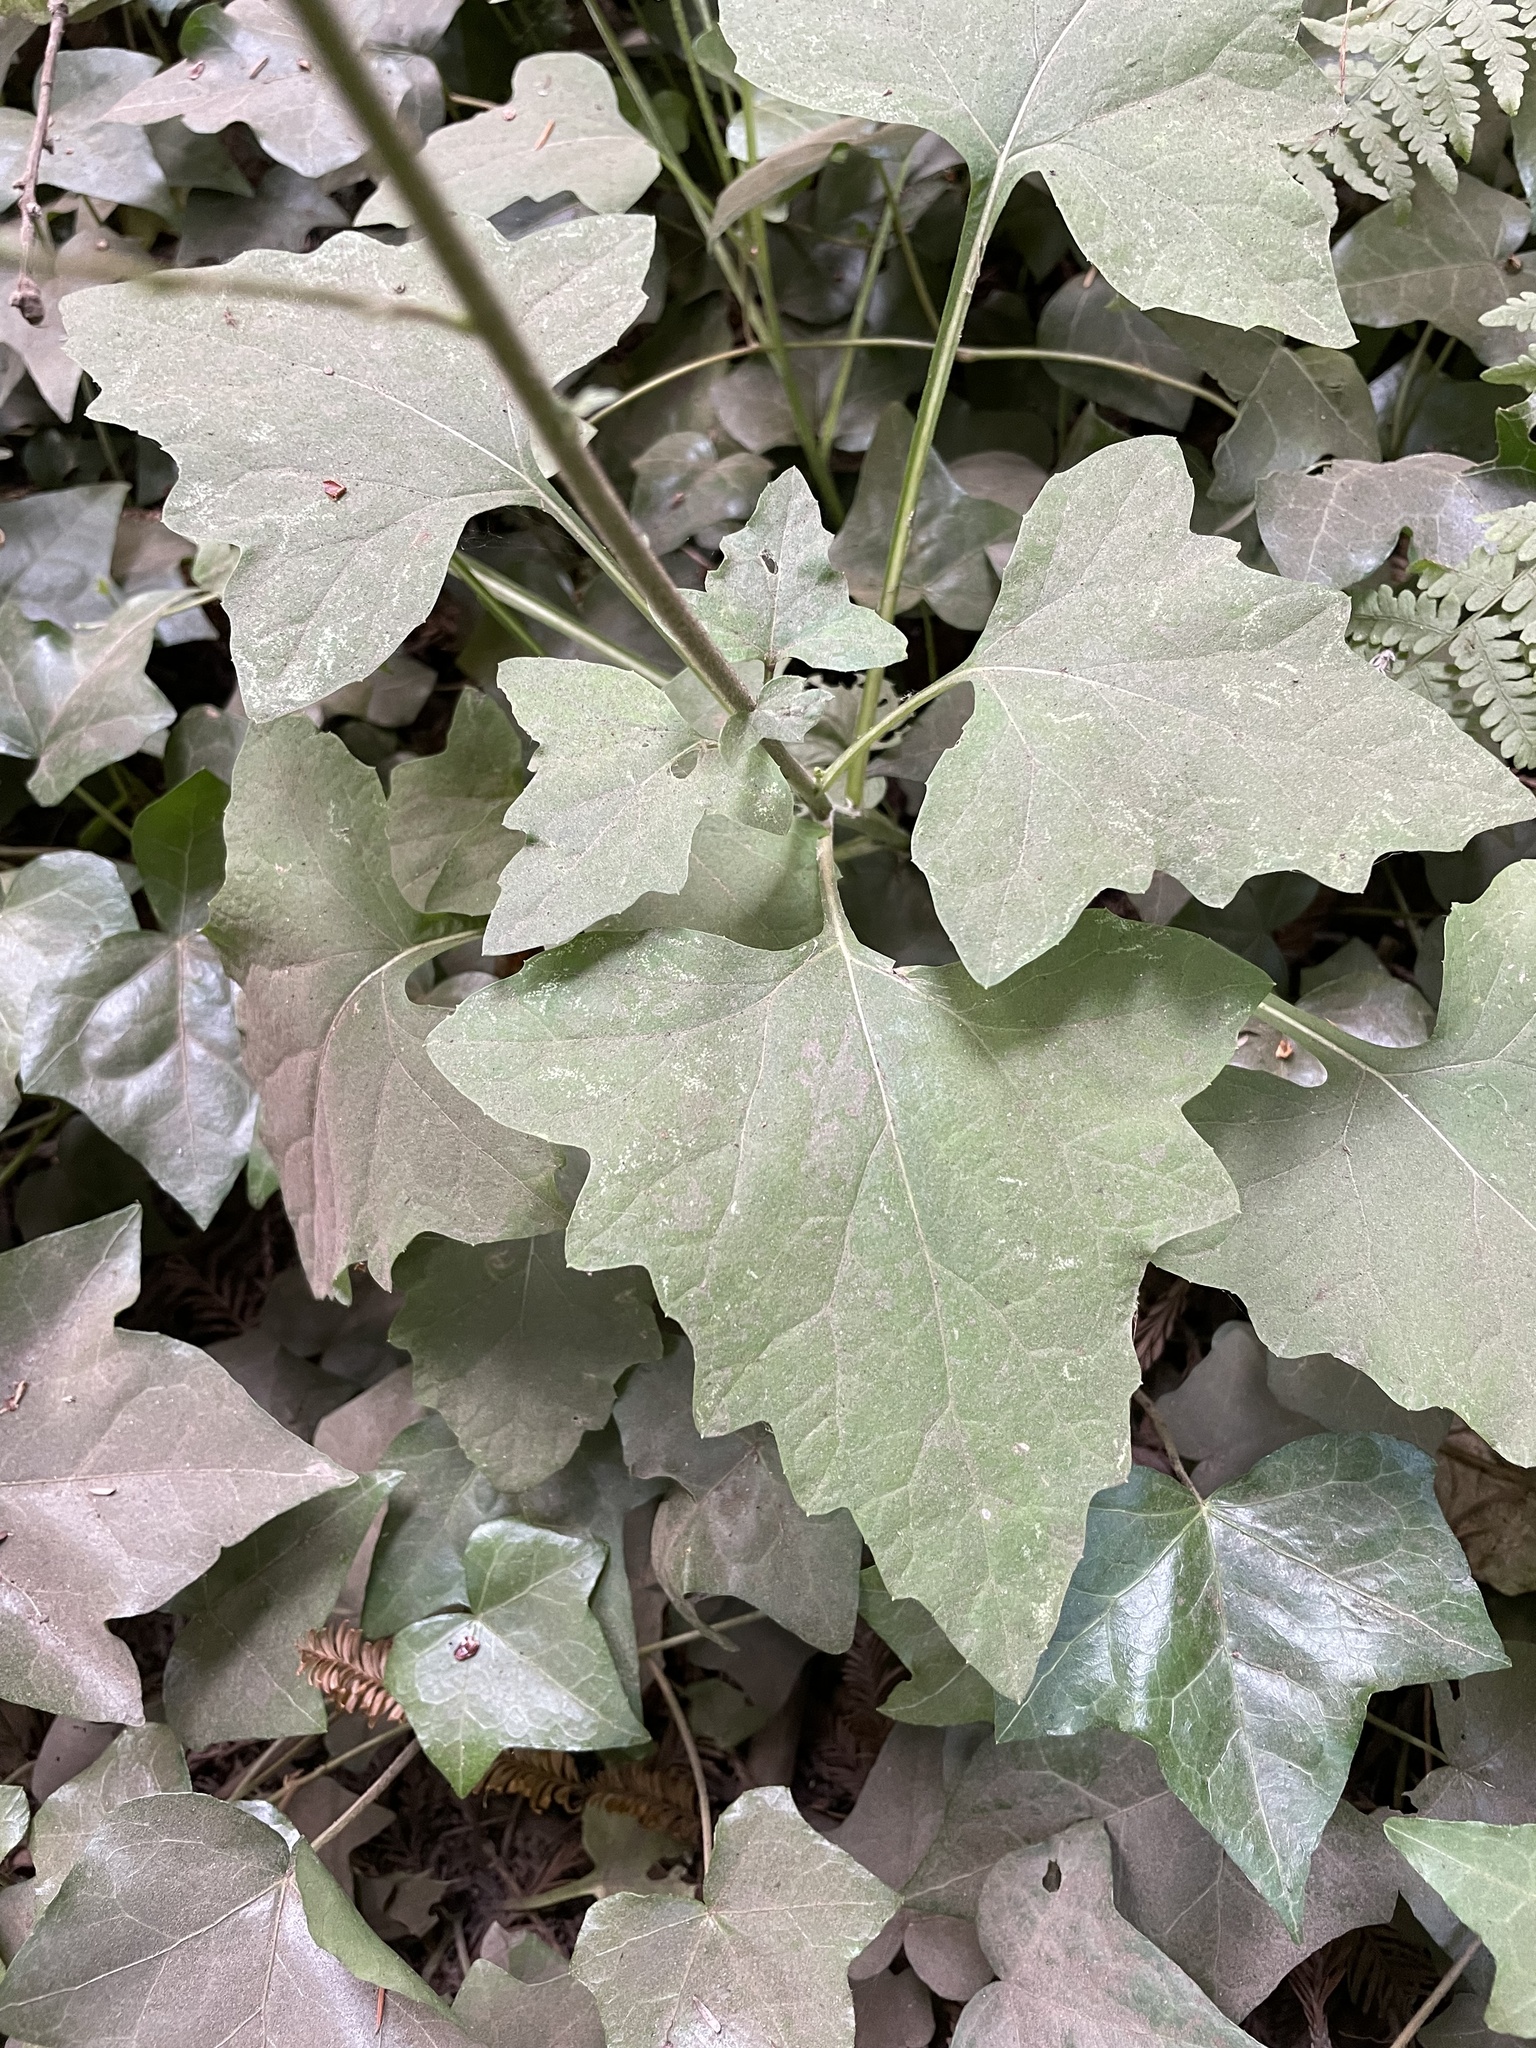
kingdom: Plantae
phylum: Tracheophyta
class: Magnoliopsida
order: Asterales
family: Asteraceae
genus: Adenocaulon
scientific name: Adenocaulon bicolor
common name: Trailplant
